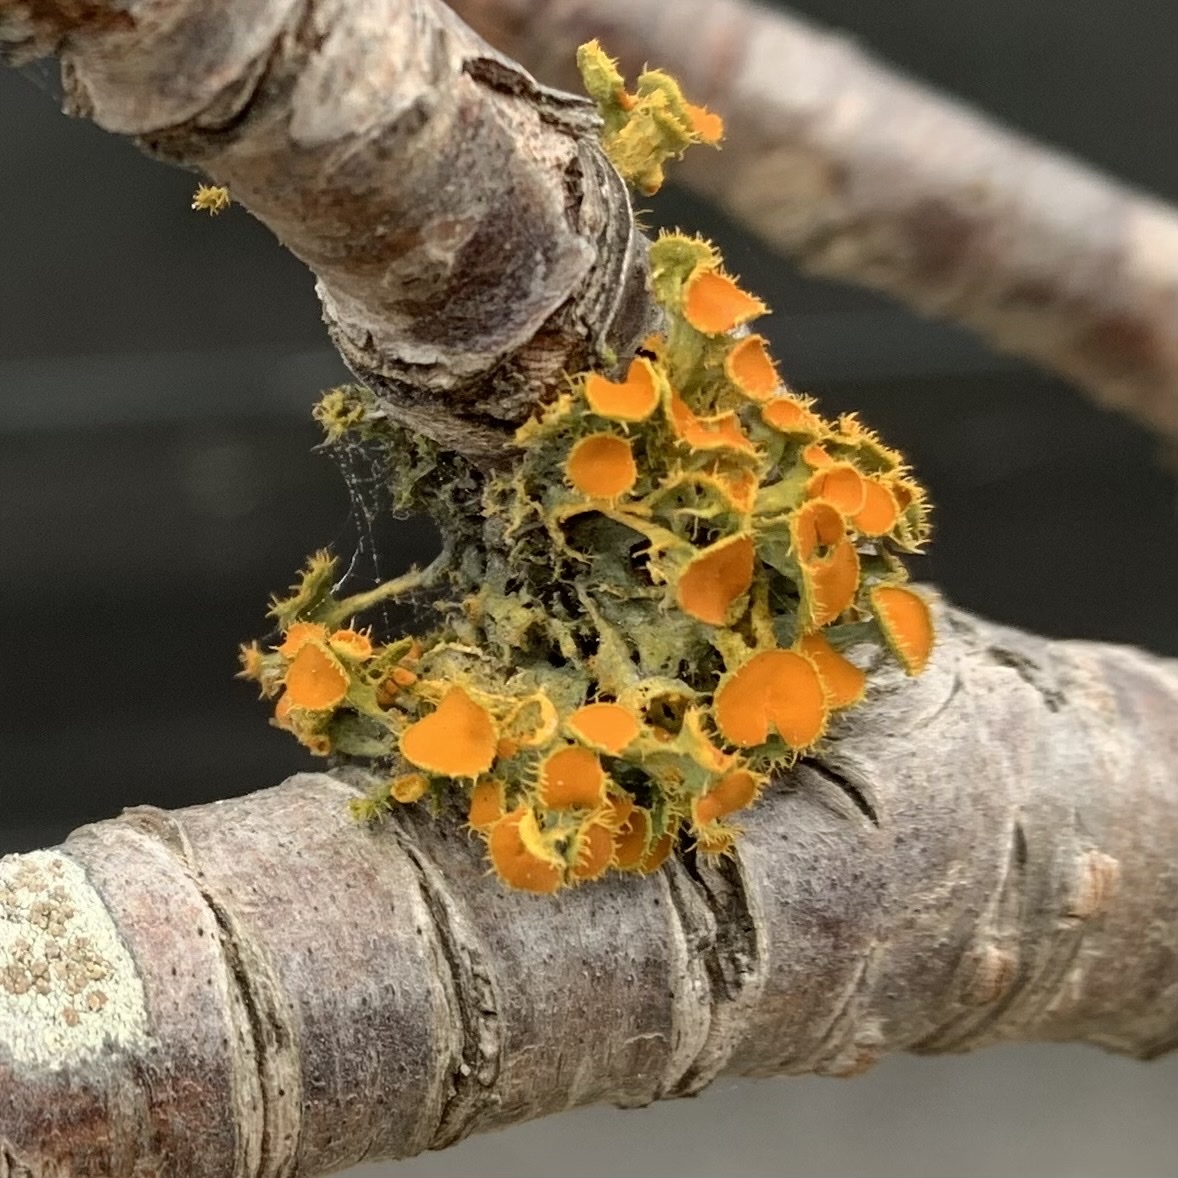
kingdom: Fungi
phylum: Ascomycota
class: Lecanoromycetes
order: Teloschistales
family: Teloschistaceae
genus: Niorma
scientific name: Niorma chrysophthalma
